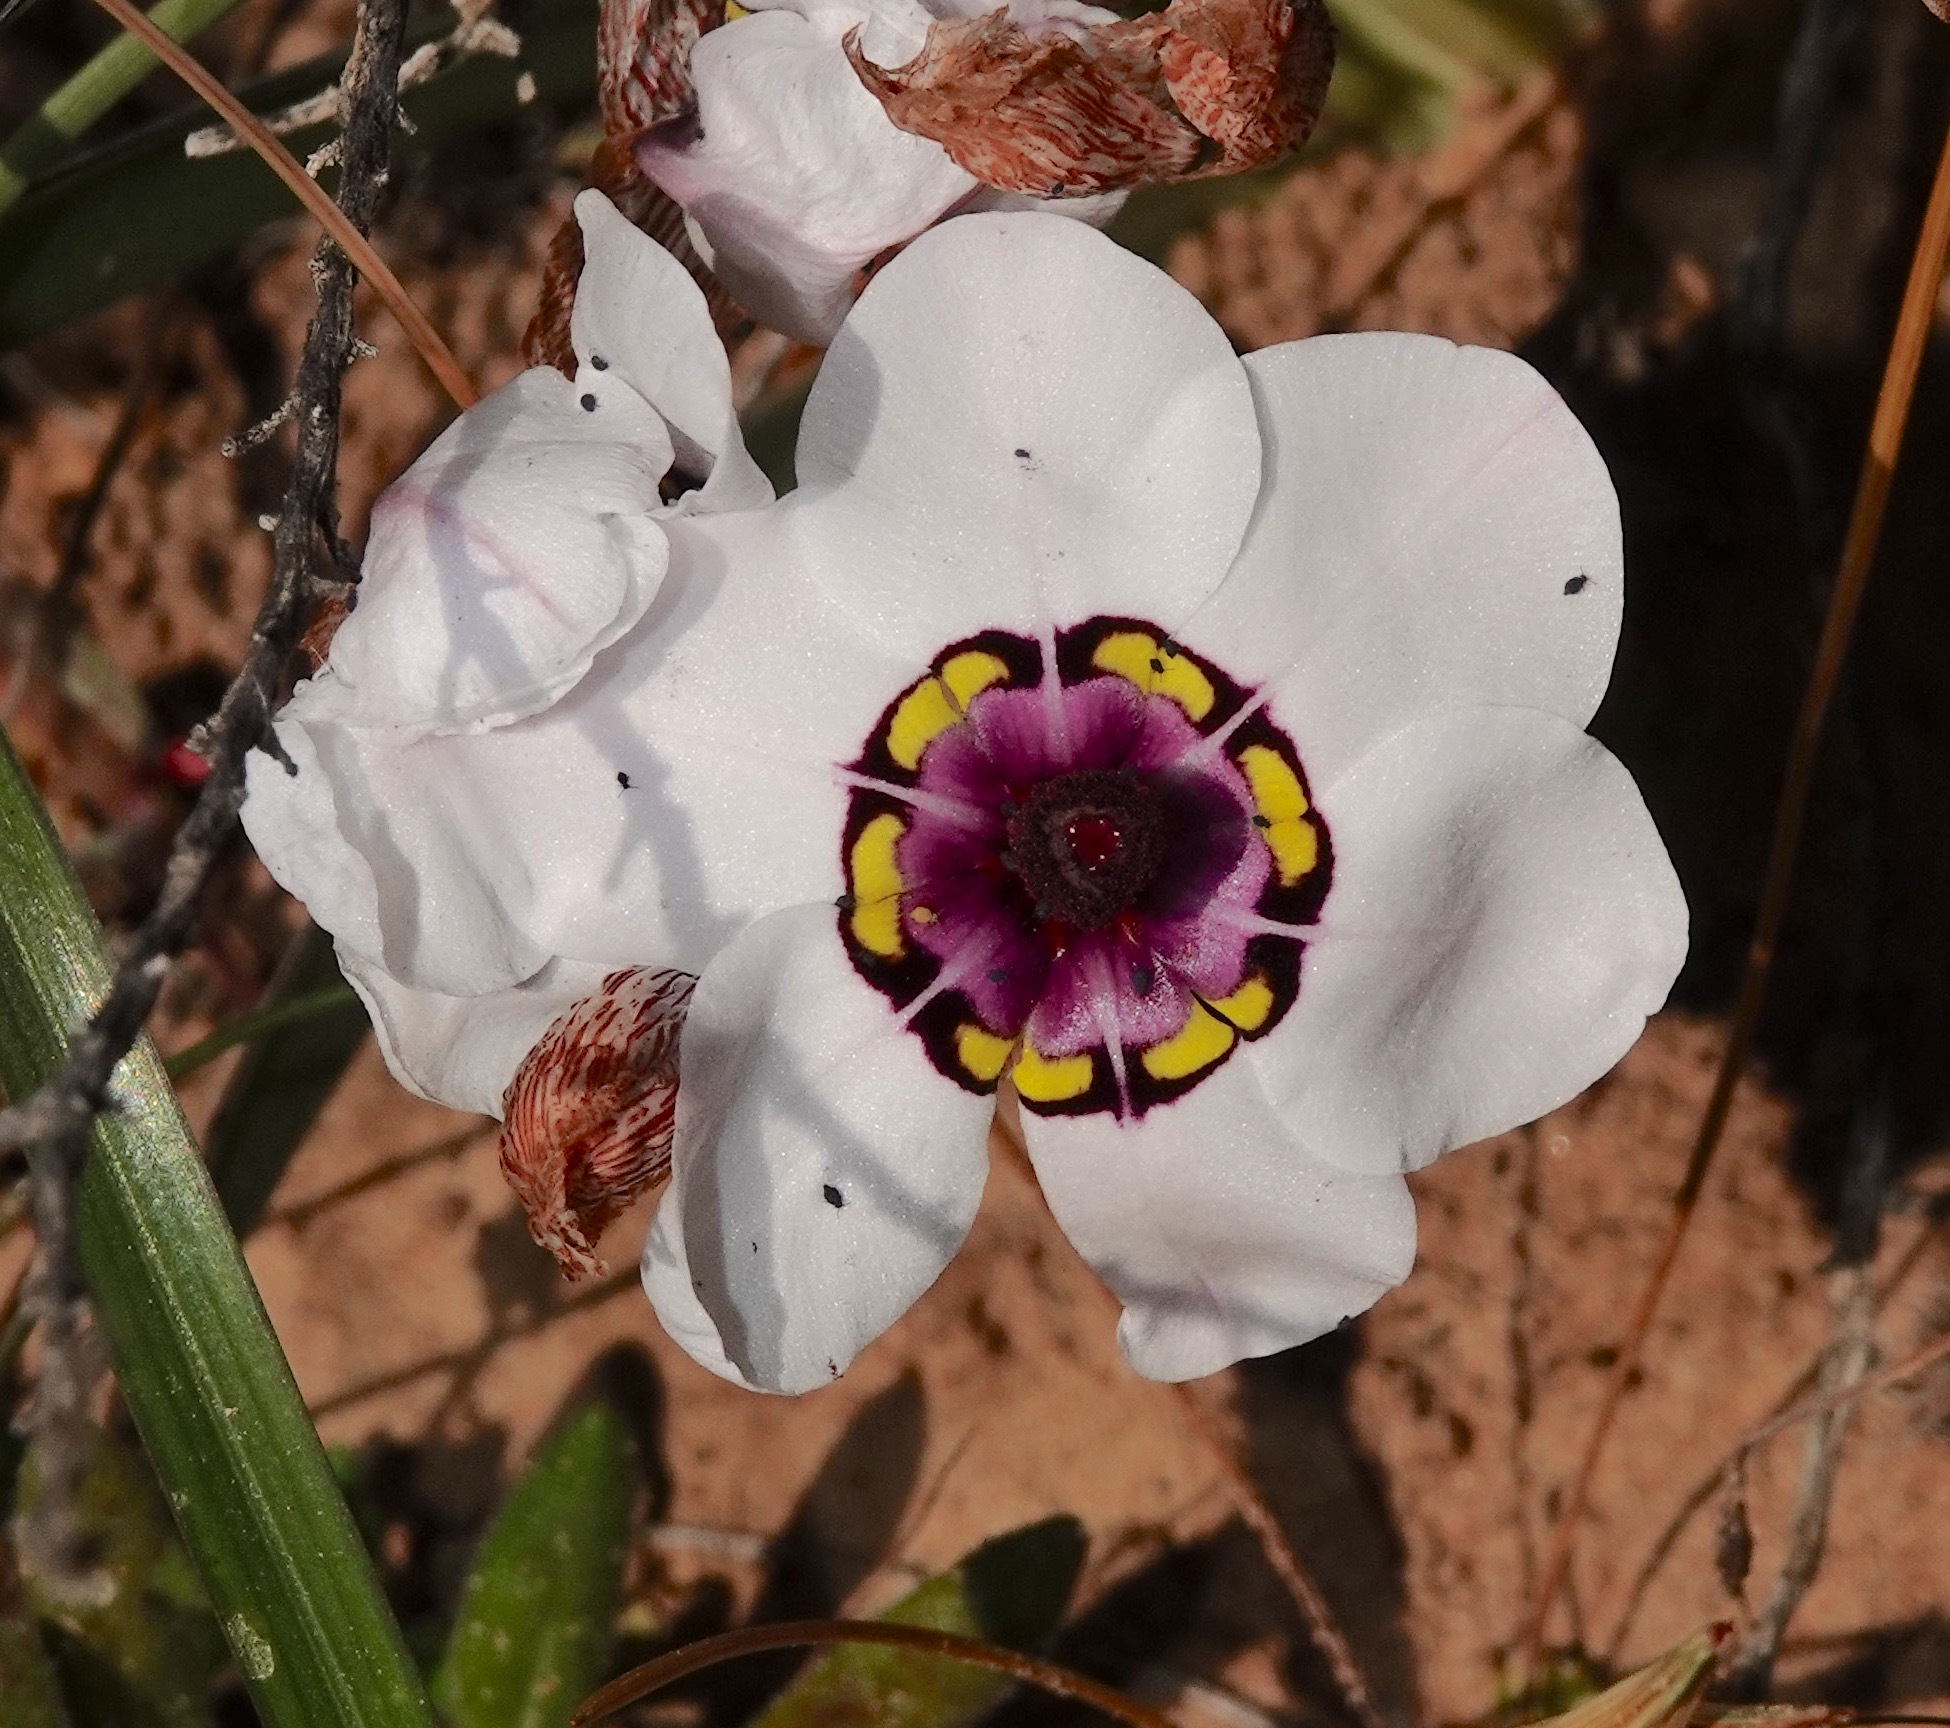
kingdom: Plantae
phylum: Tracheophyta
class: Liliopsida
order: Asparagales
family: Iridaceae
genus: Sparaxis
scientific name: Sparaxis elegans
